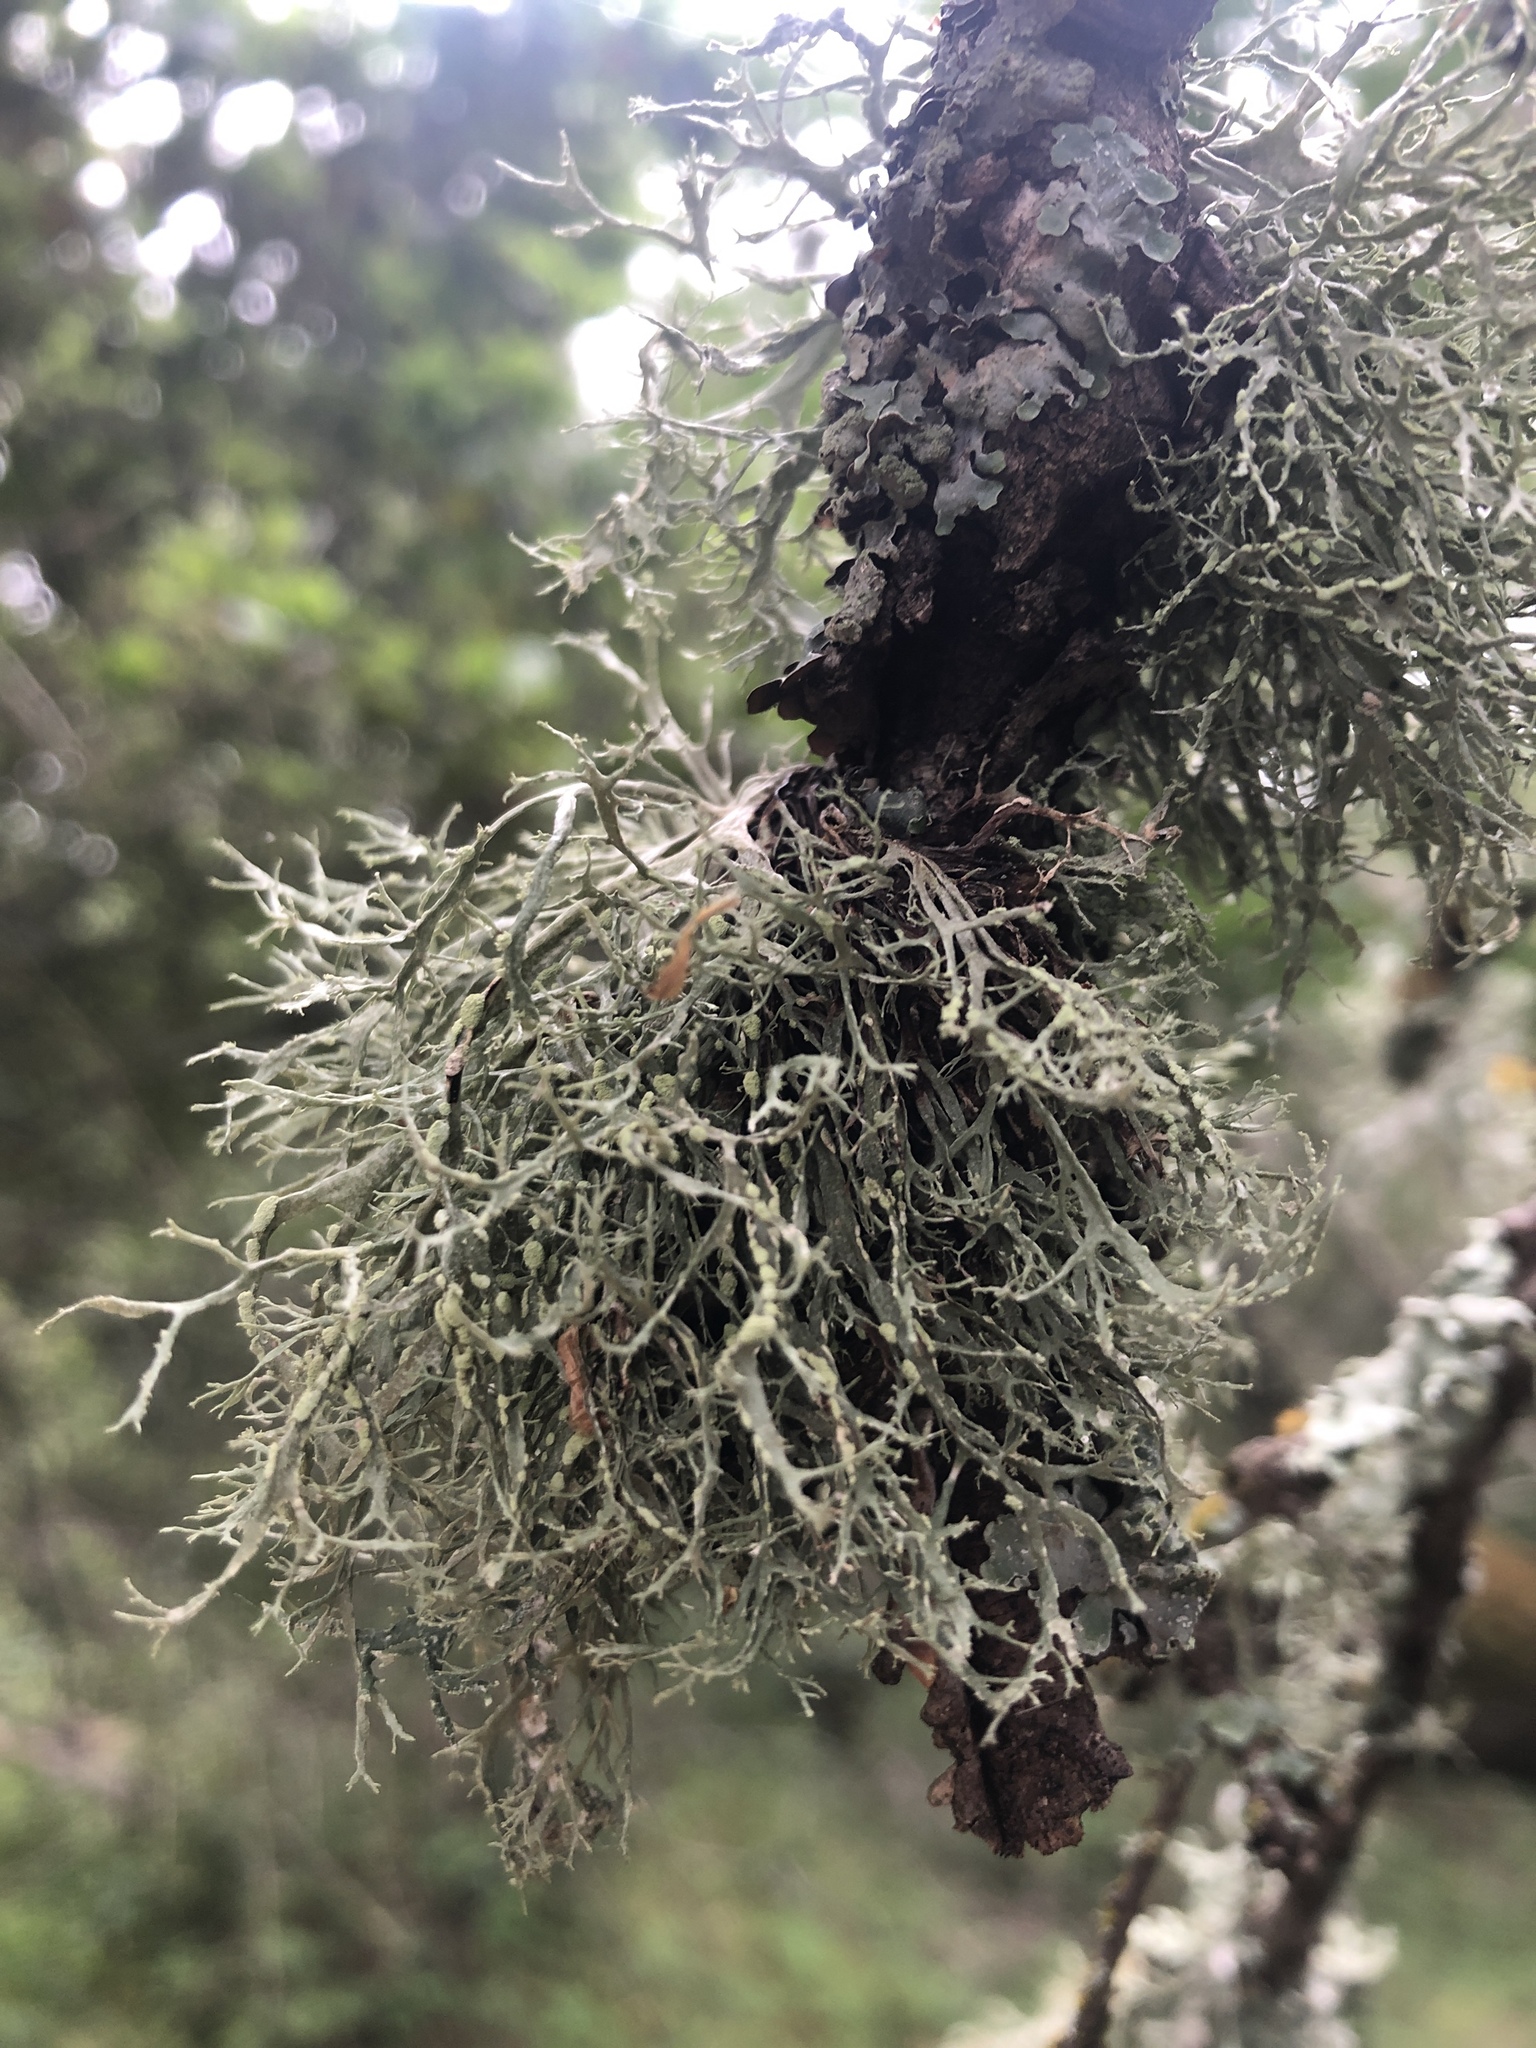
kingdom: Fungi
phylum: Ascomycota
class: Lecanoromycetes
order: Lecanorales
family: Ramalinaceae
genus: Ramalina
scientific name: Ramalina farinacea
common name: Farinose cartilage lichen
